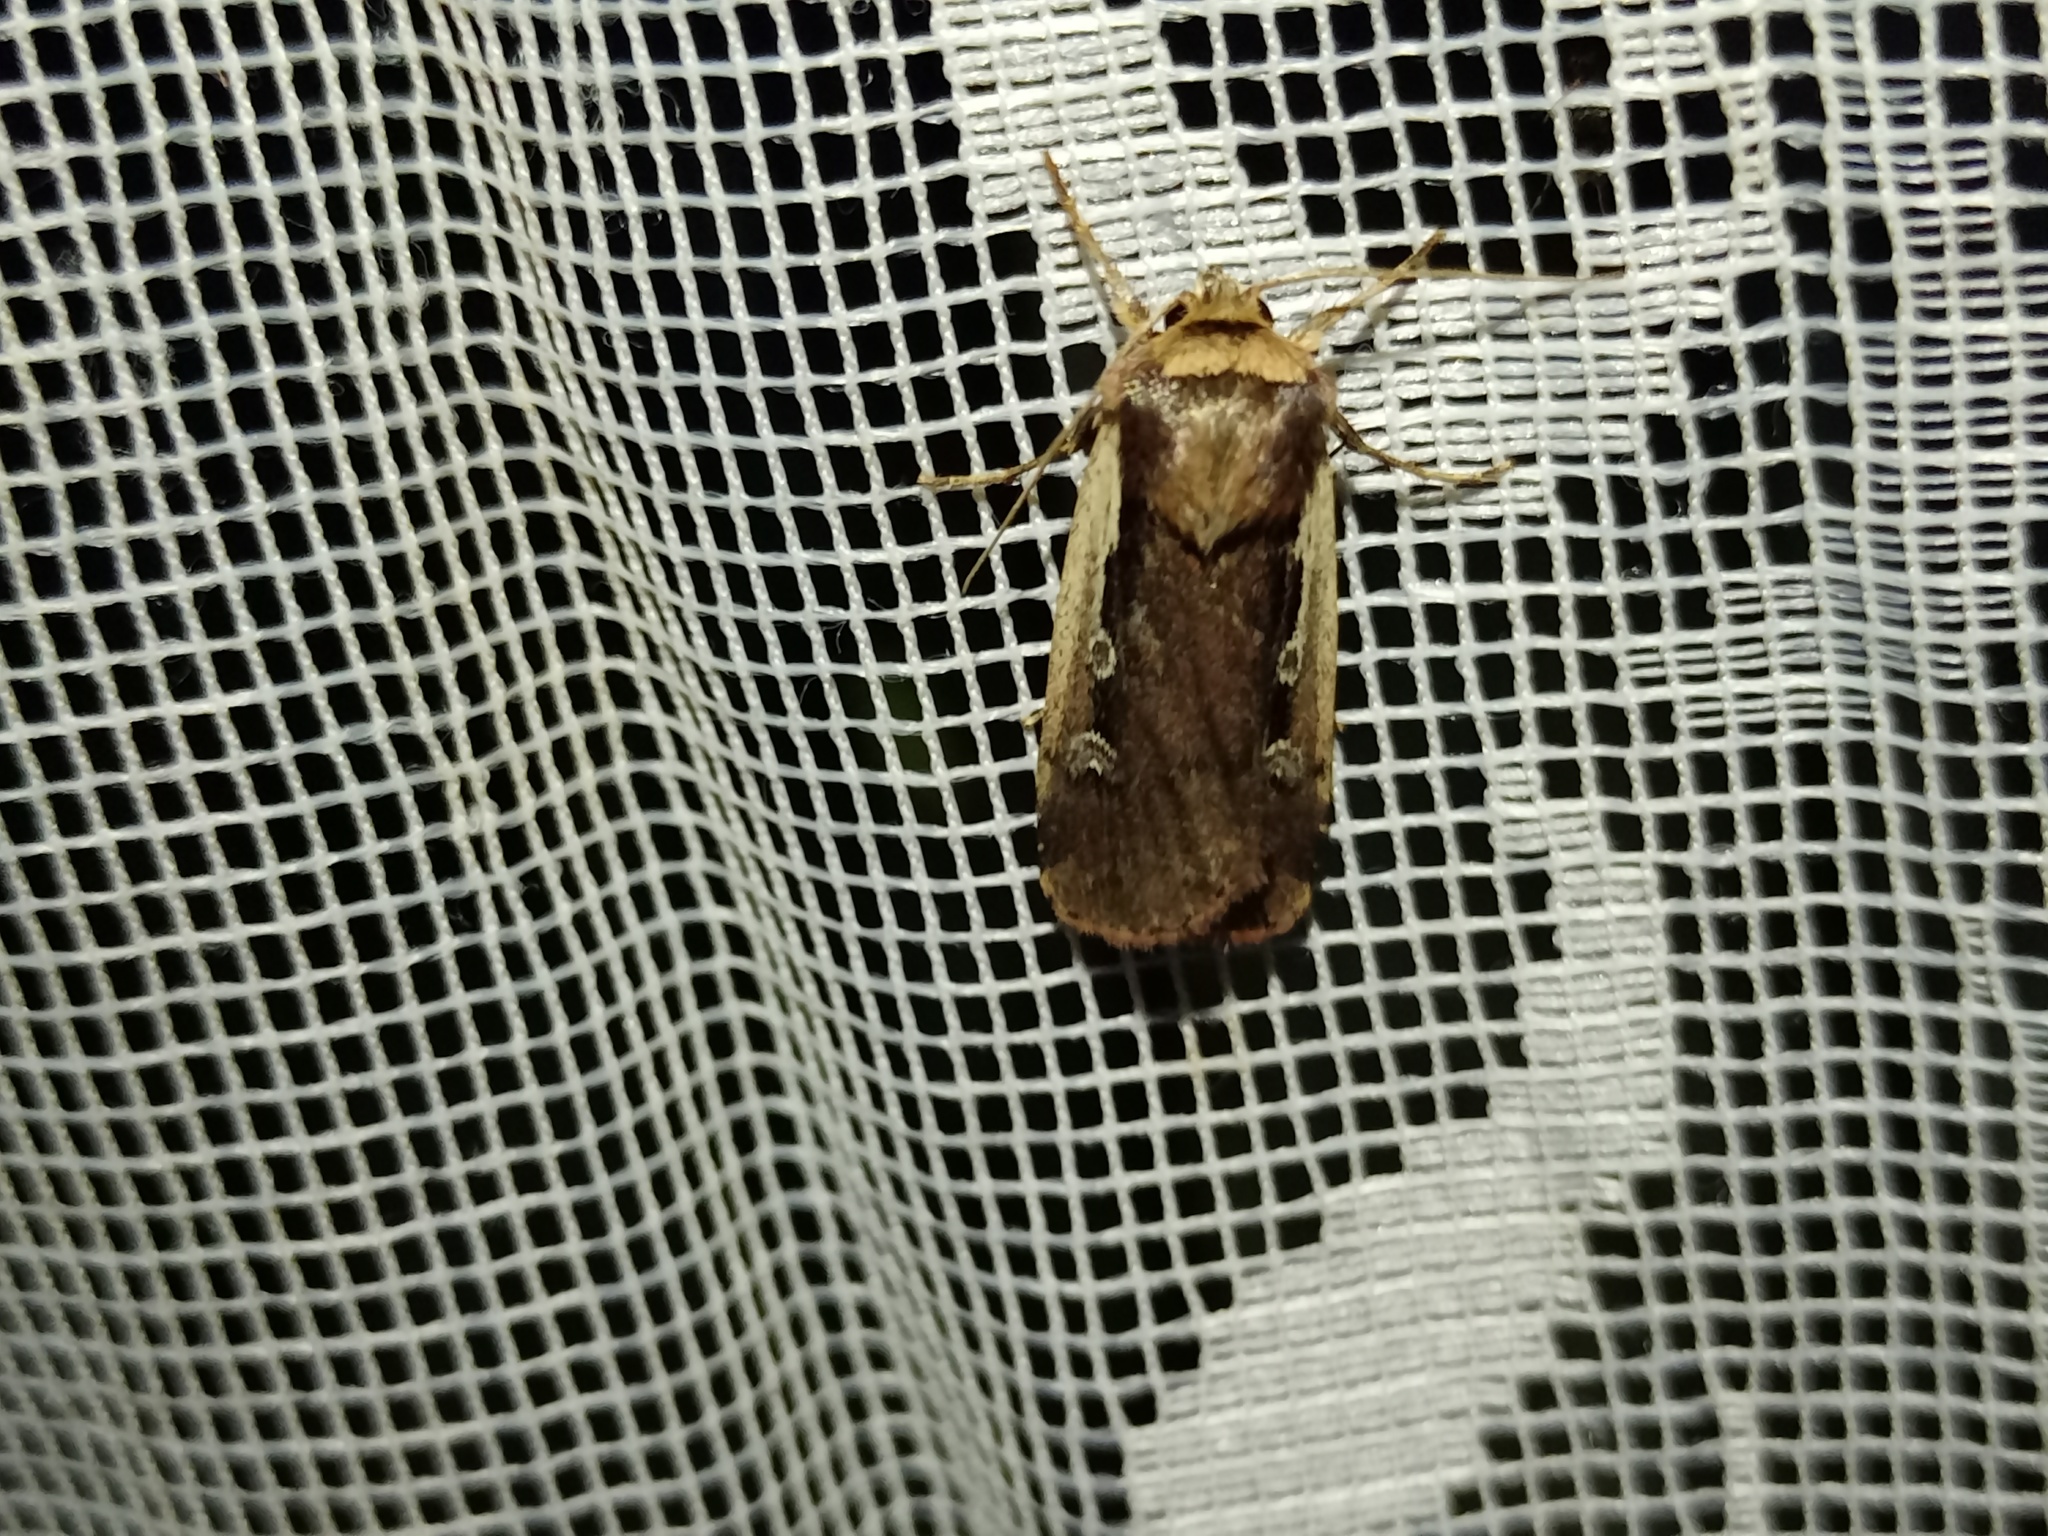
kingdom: Animalia
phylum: Arthropoda
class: Insecta
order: Lepidoptera
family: Noctuidae
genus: Ochropleura
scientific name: Ochropleura plecta
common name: Flame shoulder
